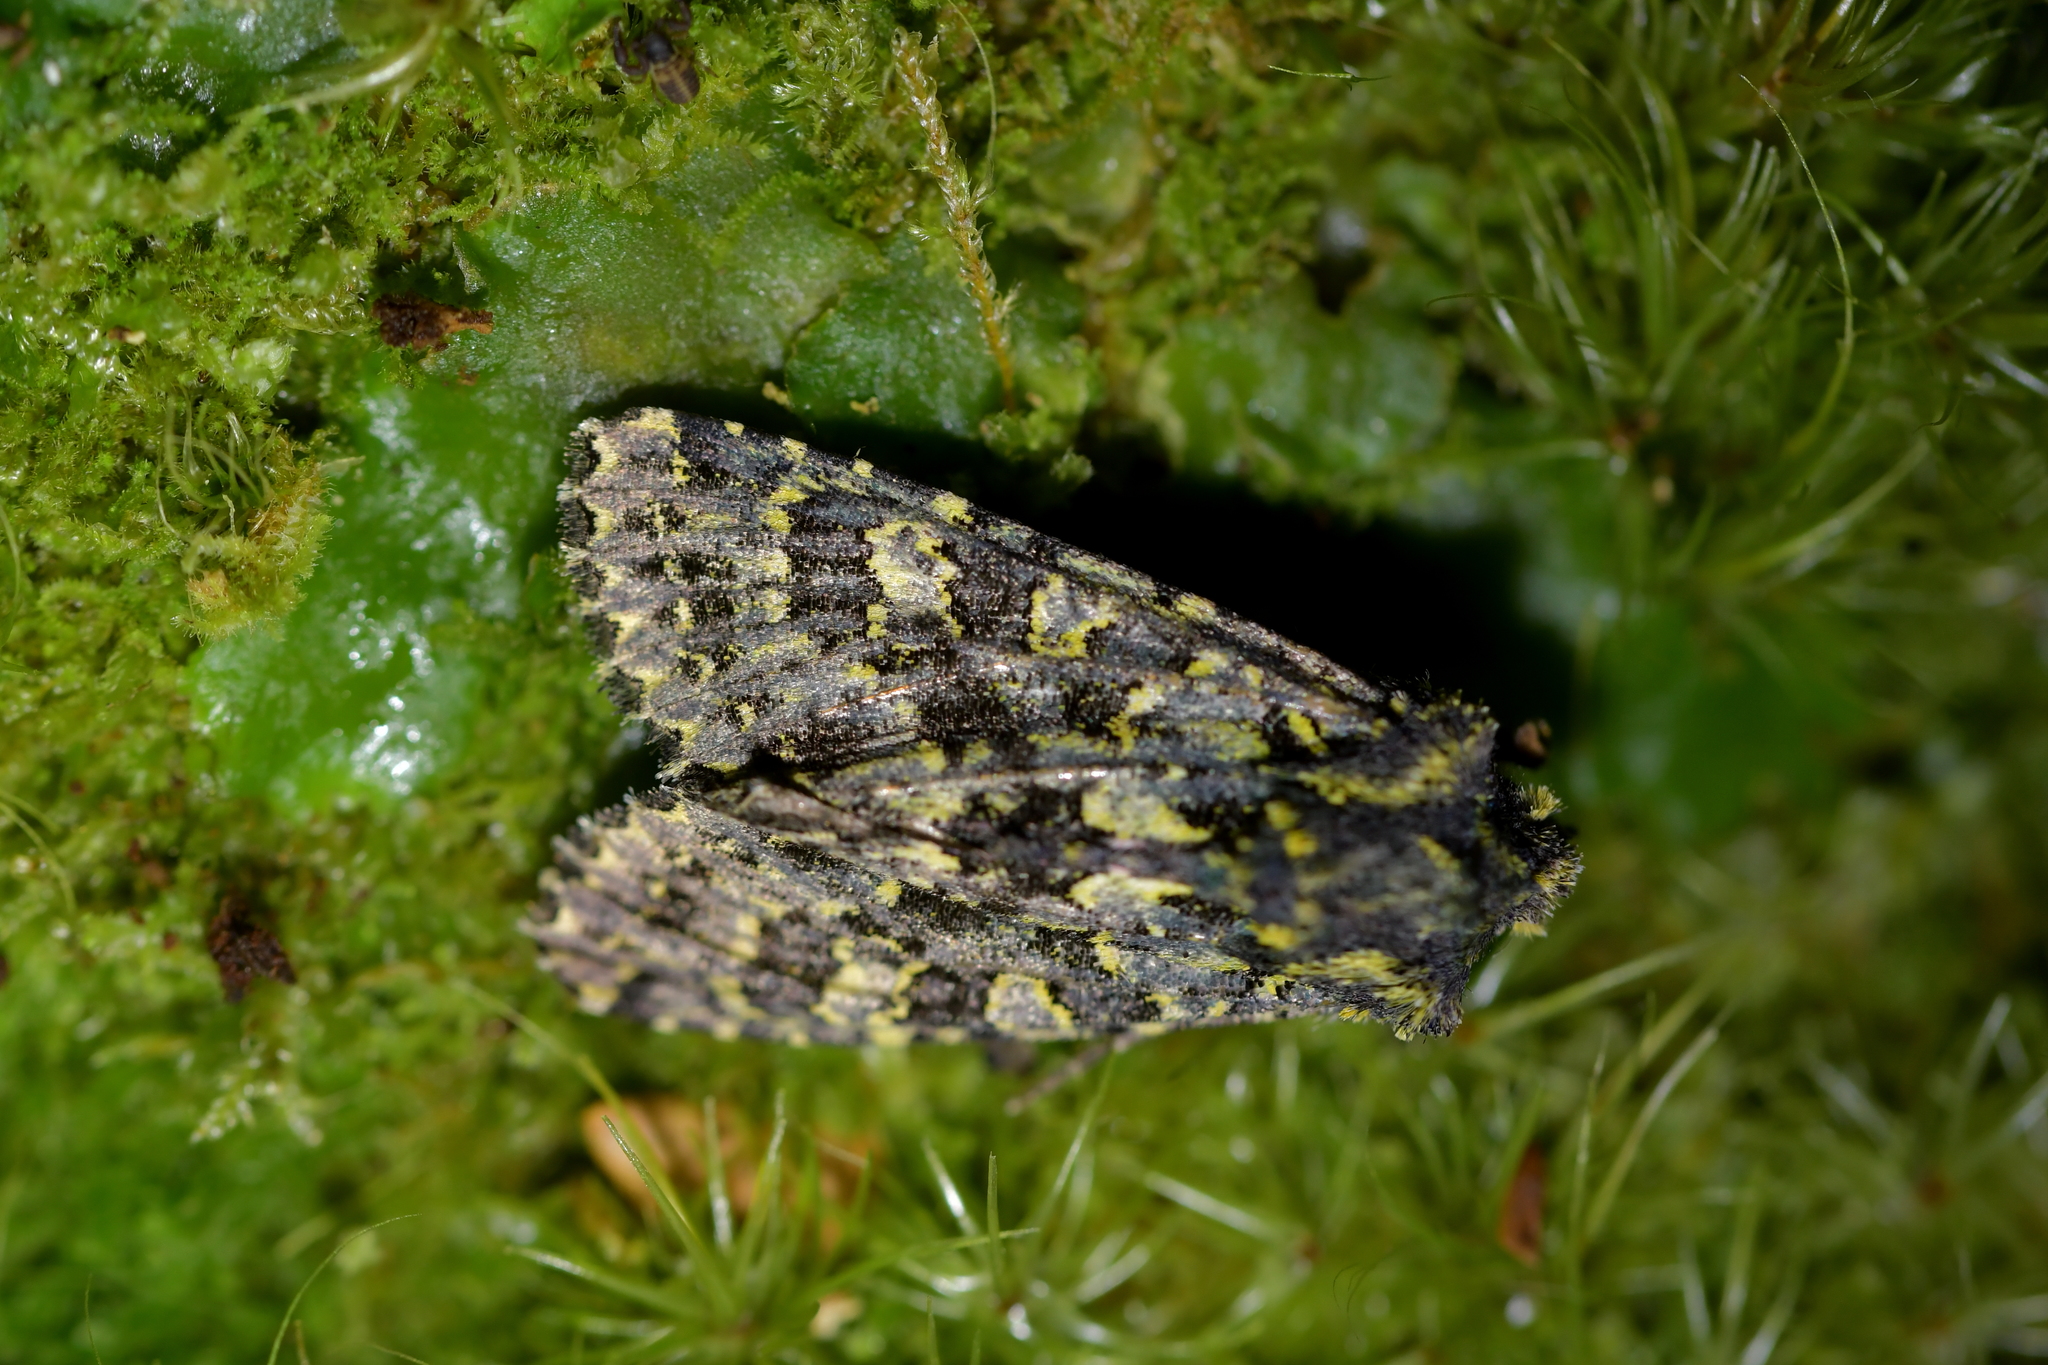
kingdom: Animalia
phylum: Arthropoda
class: Insecta
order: Lepidoptera
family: Noctuidae
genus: Meterana
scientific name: Meterana pictula
